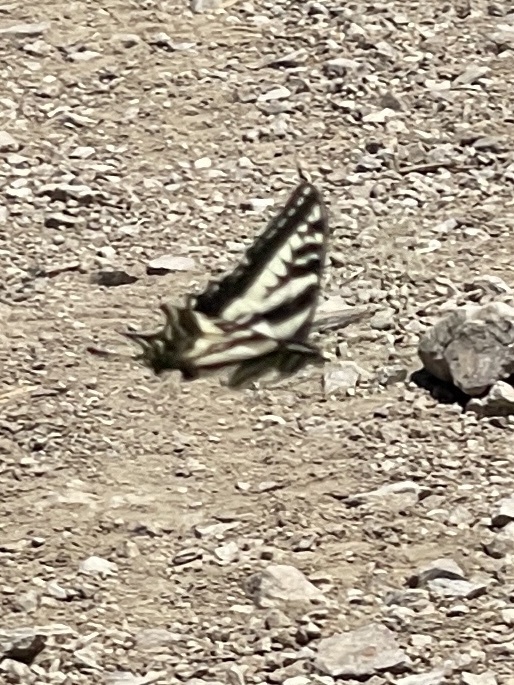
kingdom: Animalia
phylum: Arthropoda
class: Insecta
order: Lepidoptera
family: Papilionidae
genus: Papilio
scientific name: Papilio eurymedon
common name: Pale tiger swallowtail
